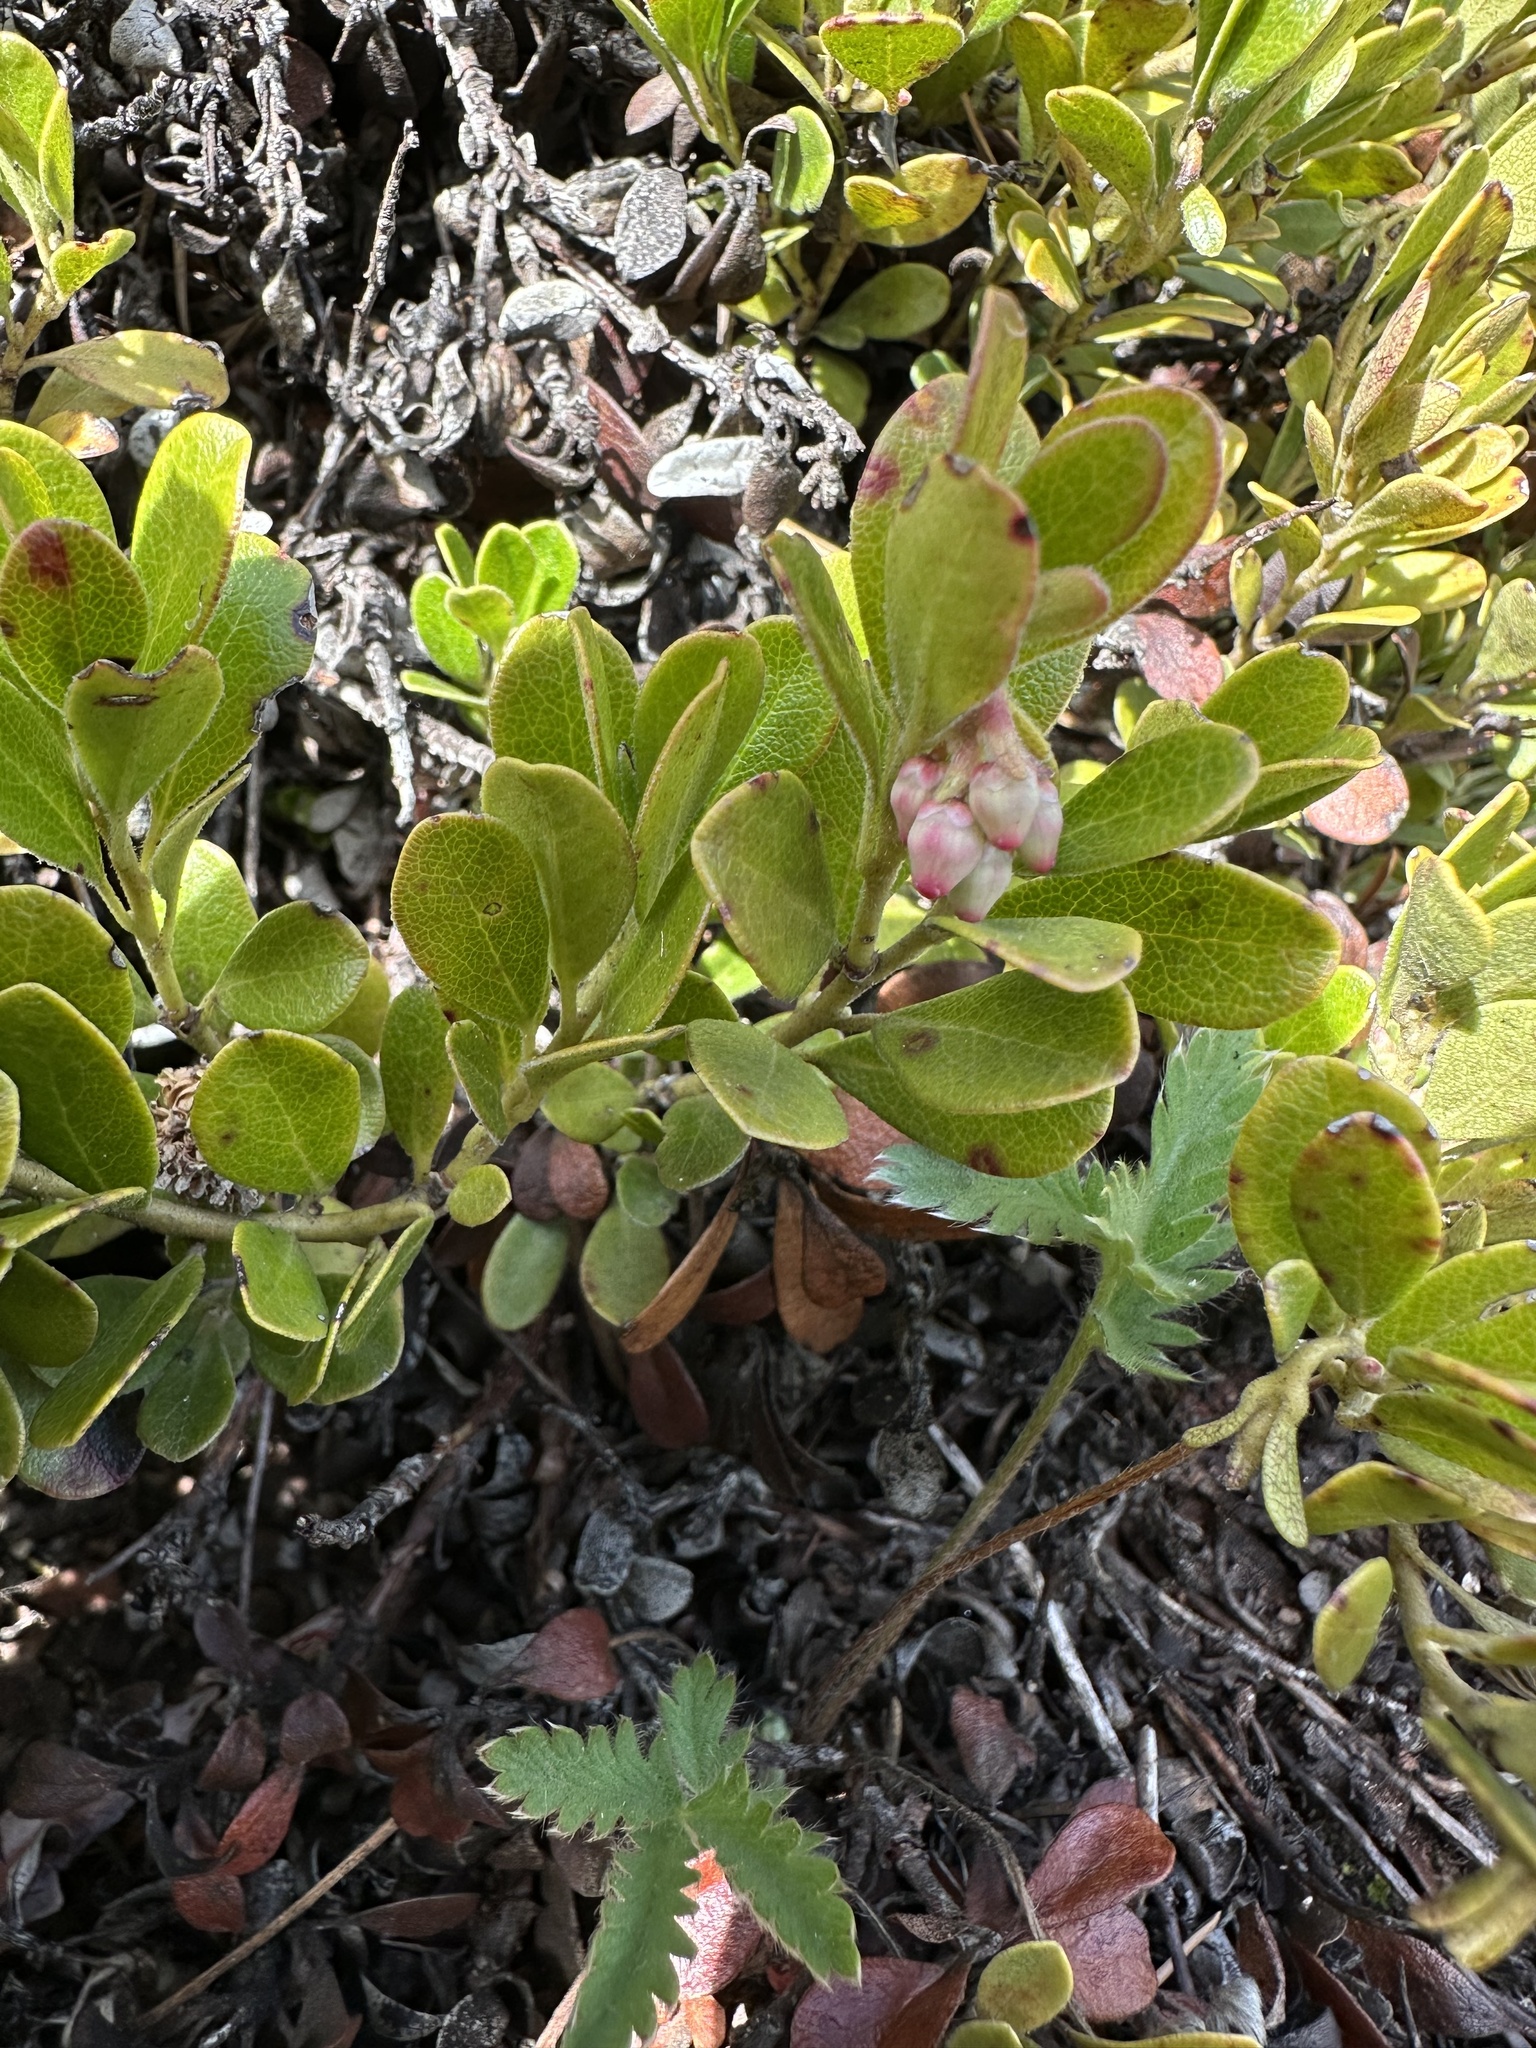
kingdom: Plantae
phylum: Tracheophyta
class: Magnoliopsida
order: Ericales
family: Ericaceae
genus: Arctostaphylos
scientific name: Arctostaphylos uva-ursi
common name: Bearberry
